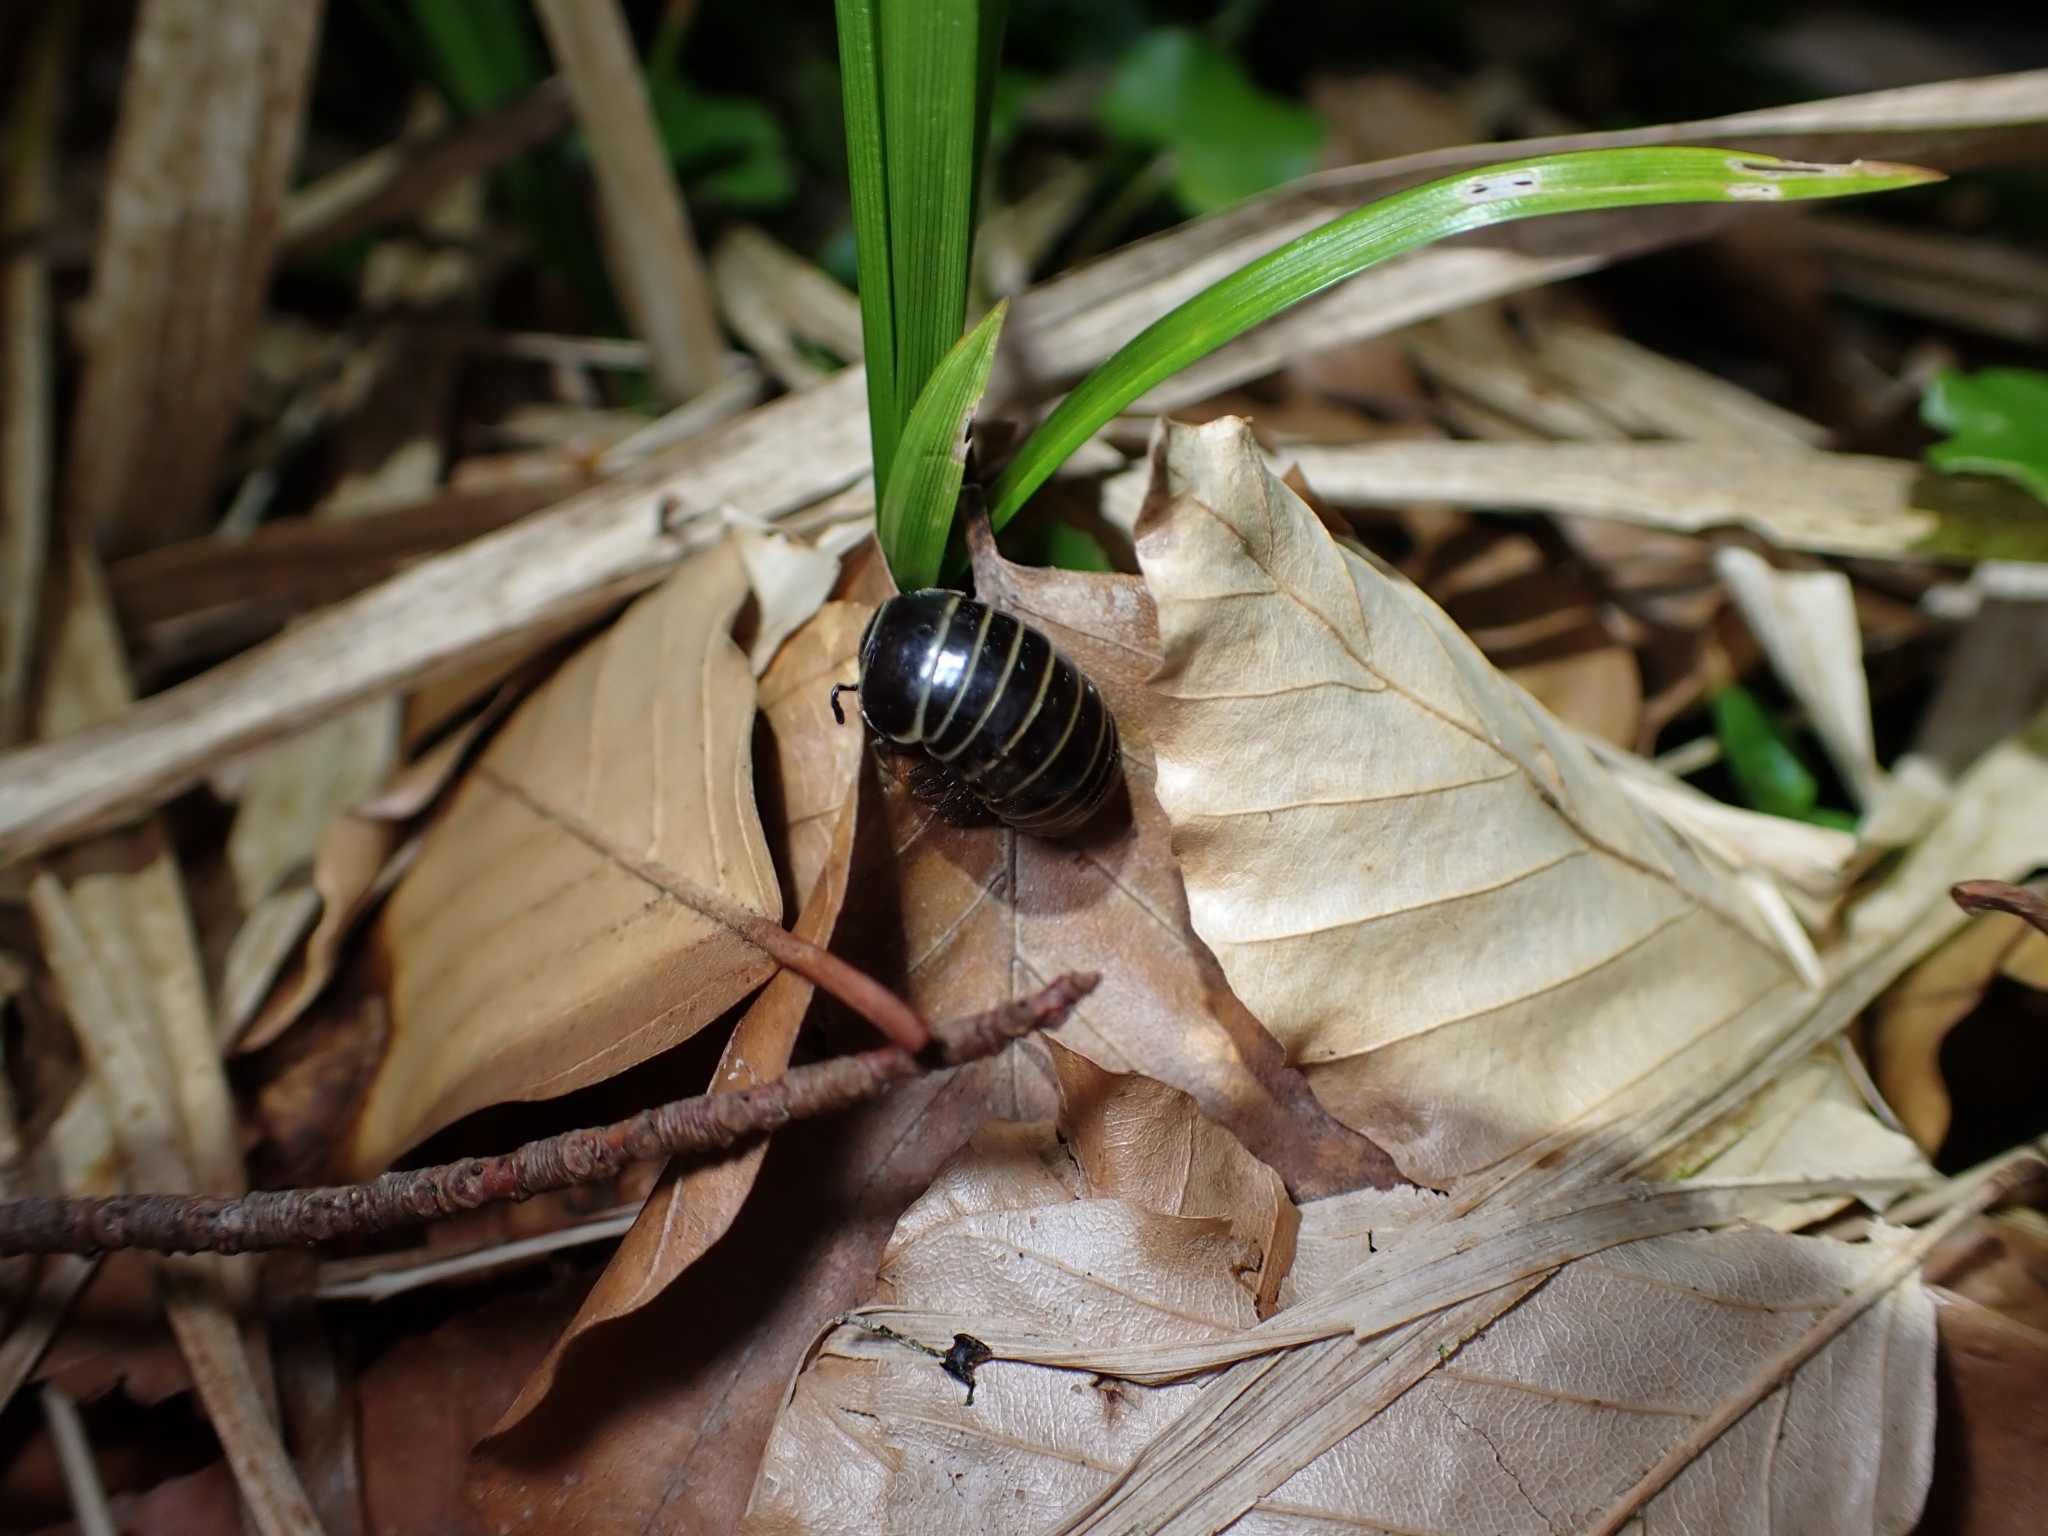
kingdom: Animalia
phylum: Arthropoda
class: Diplopoda
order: Glomerida
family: Glomeridae
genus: Glomeris
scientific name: Glomeris marginata
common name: Bordered pill millipede
